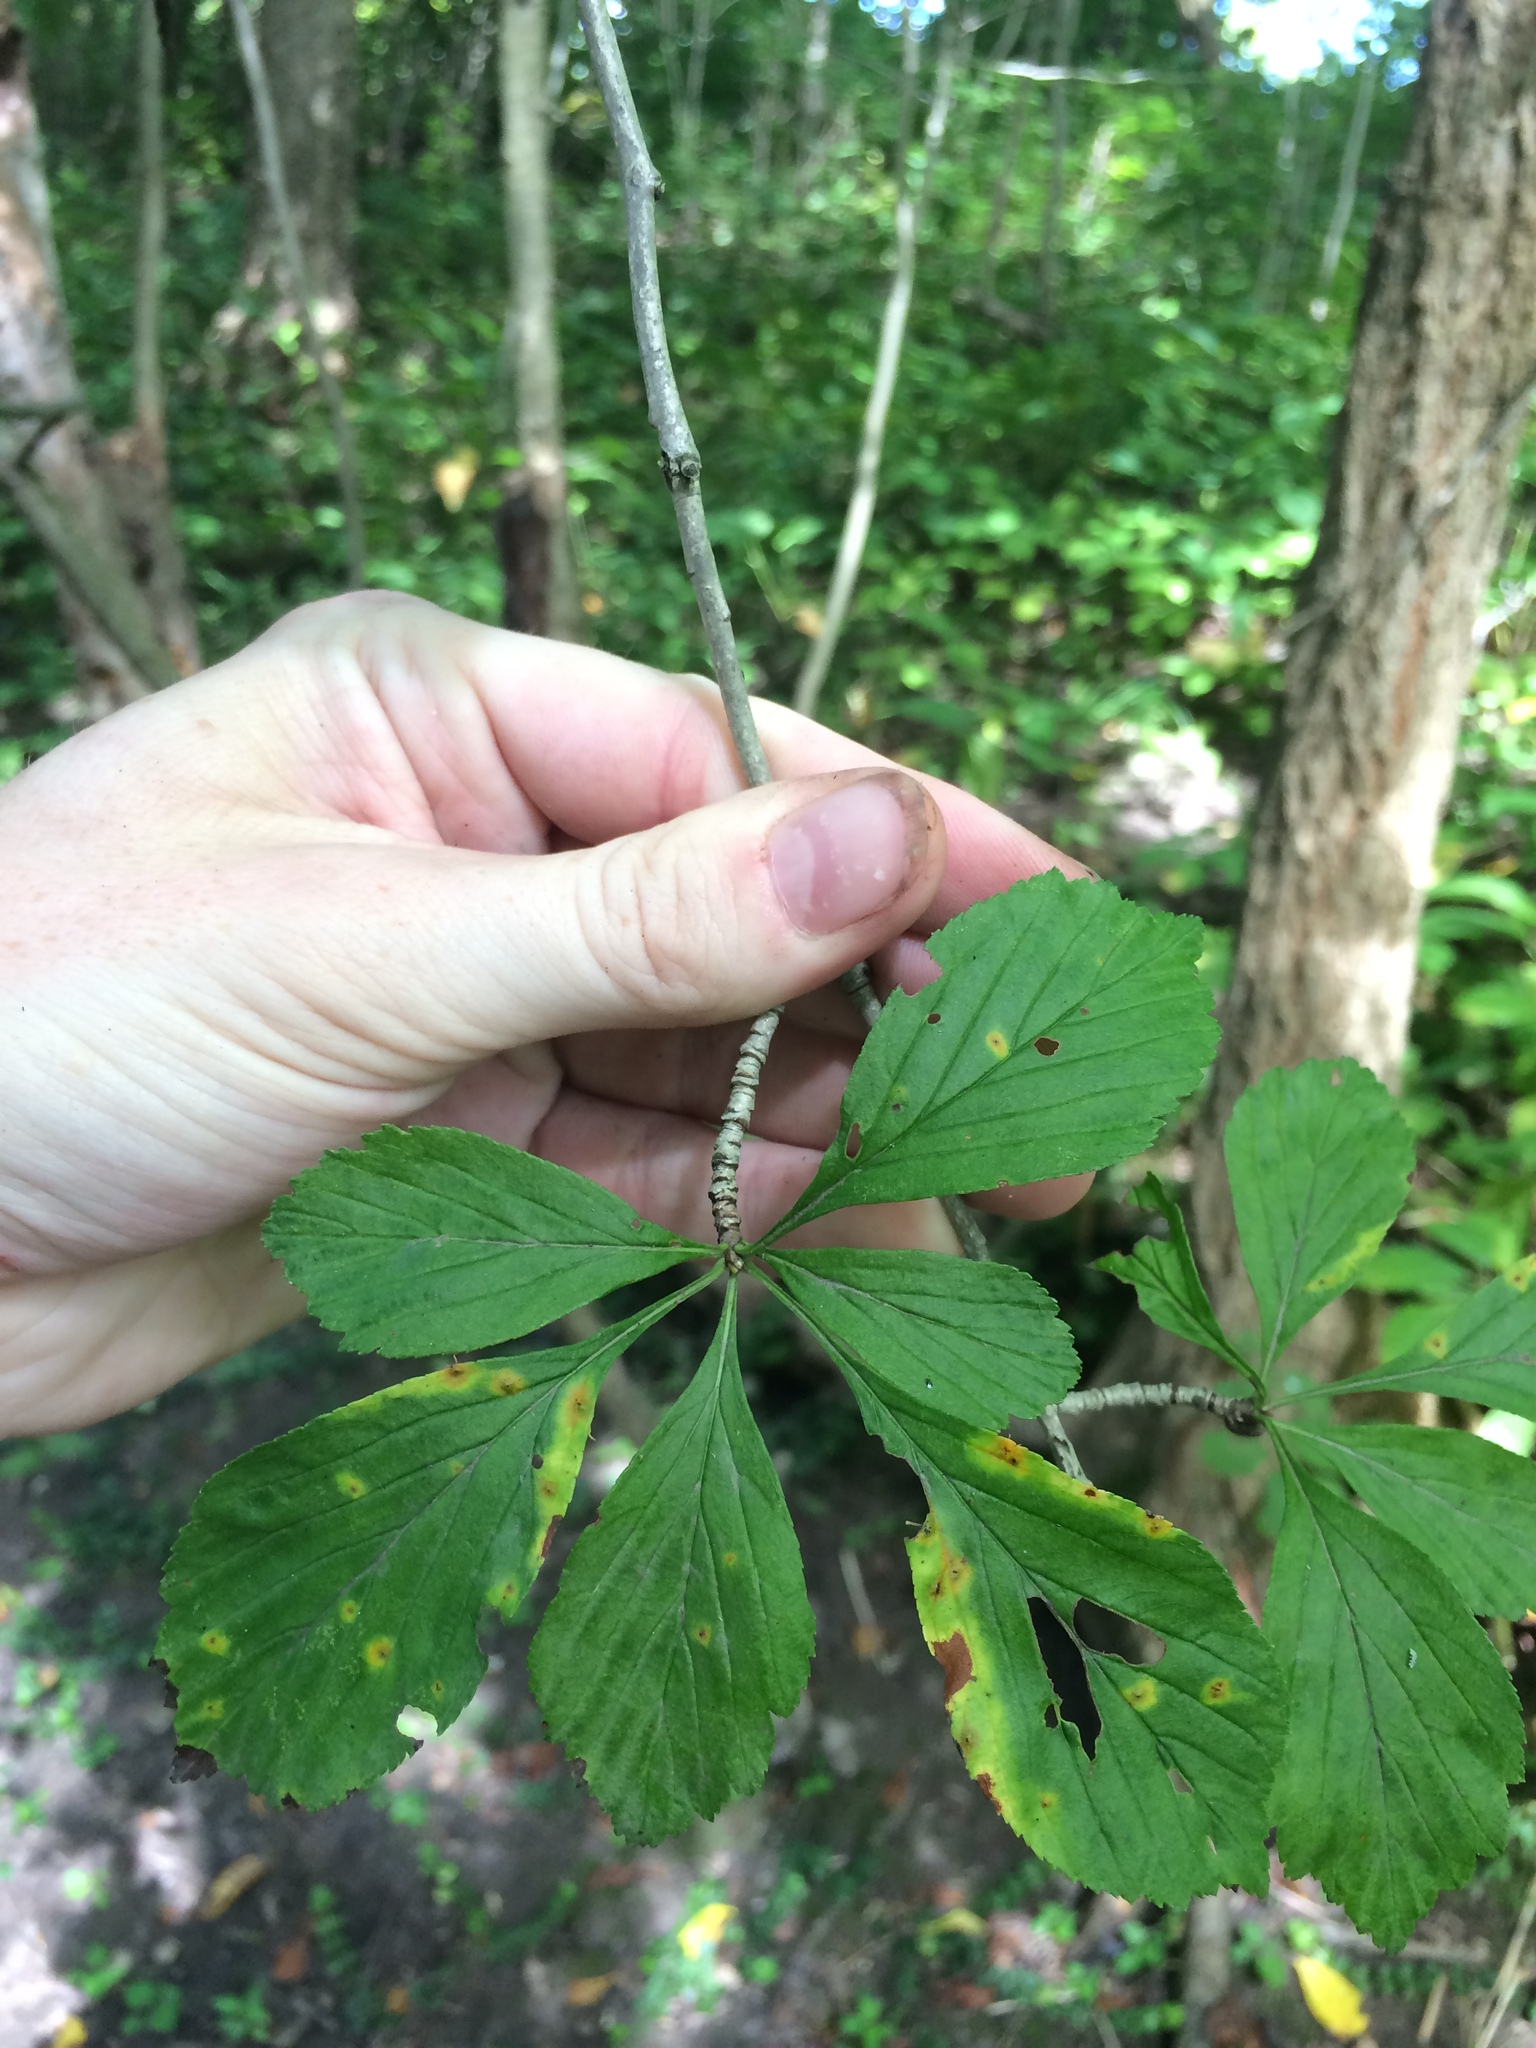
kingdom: Plantae
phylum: Tracheophyta
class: Magnoliopsida
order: Rosales
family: Rosaceae
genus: Crataegus
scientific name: Crataegus punctata
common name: Dotted hawthorn
